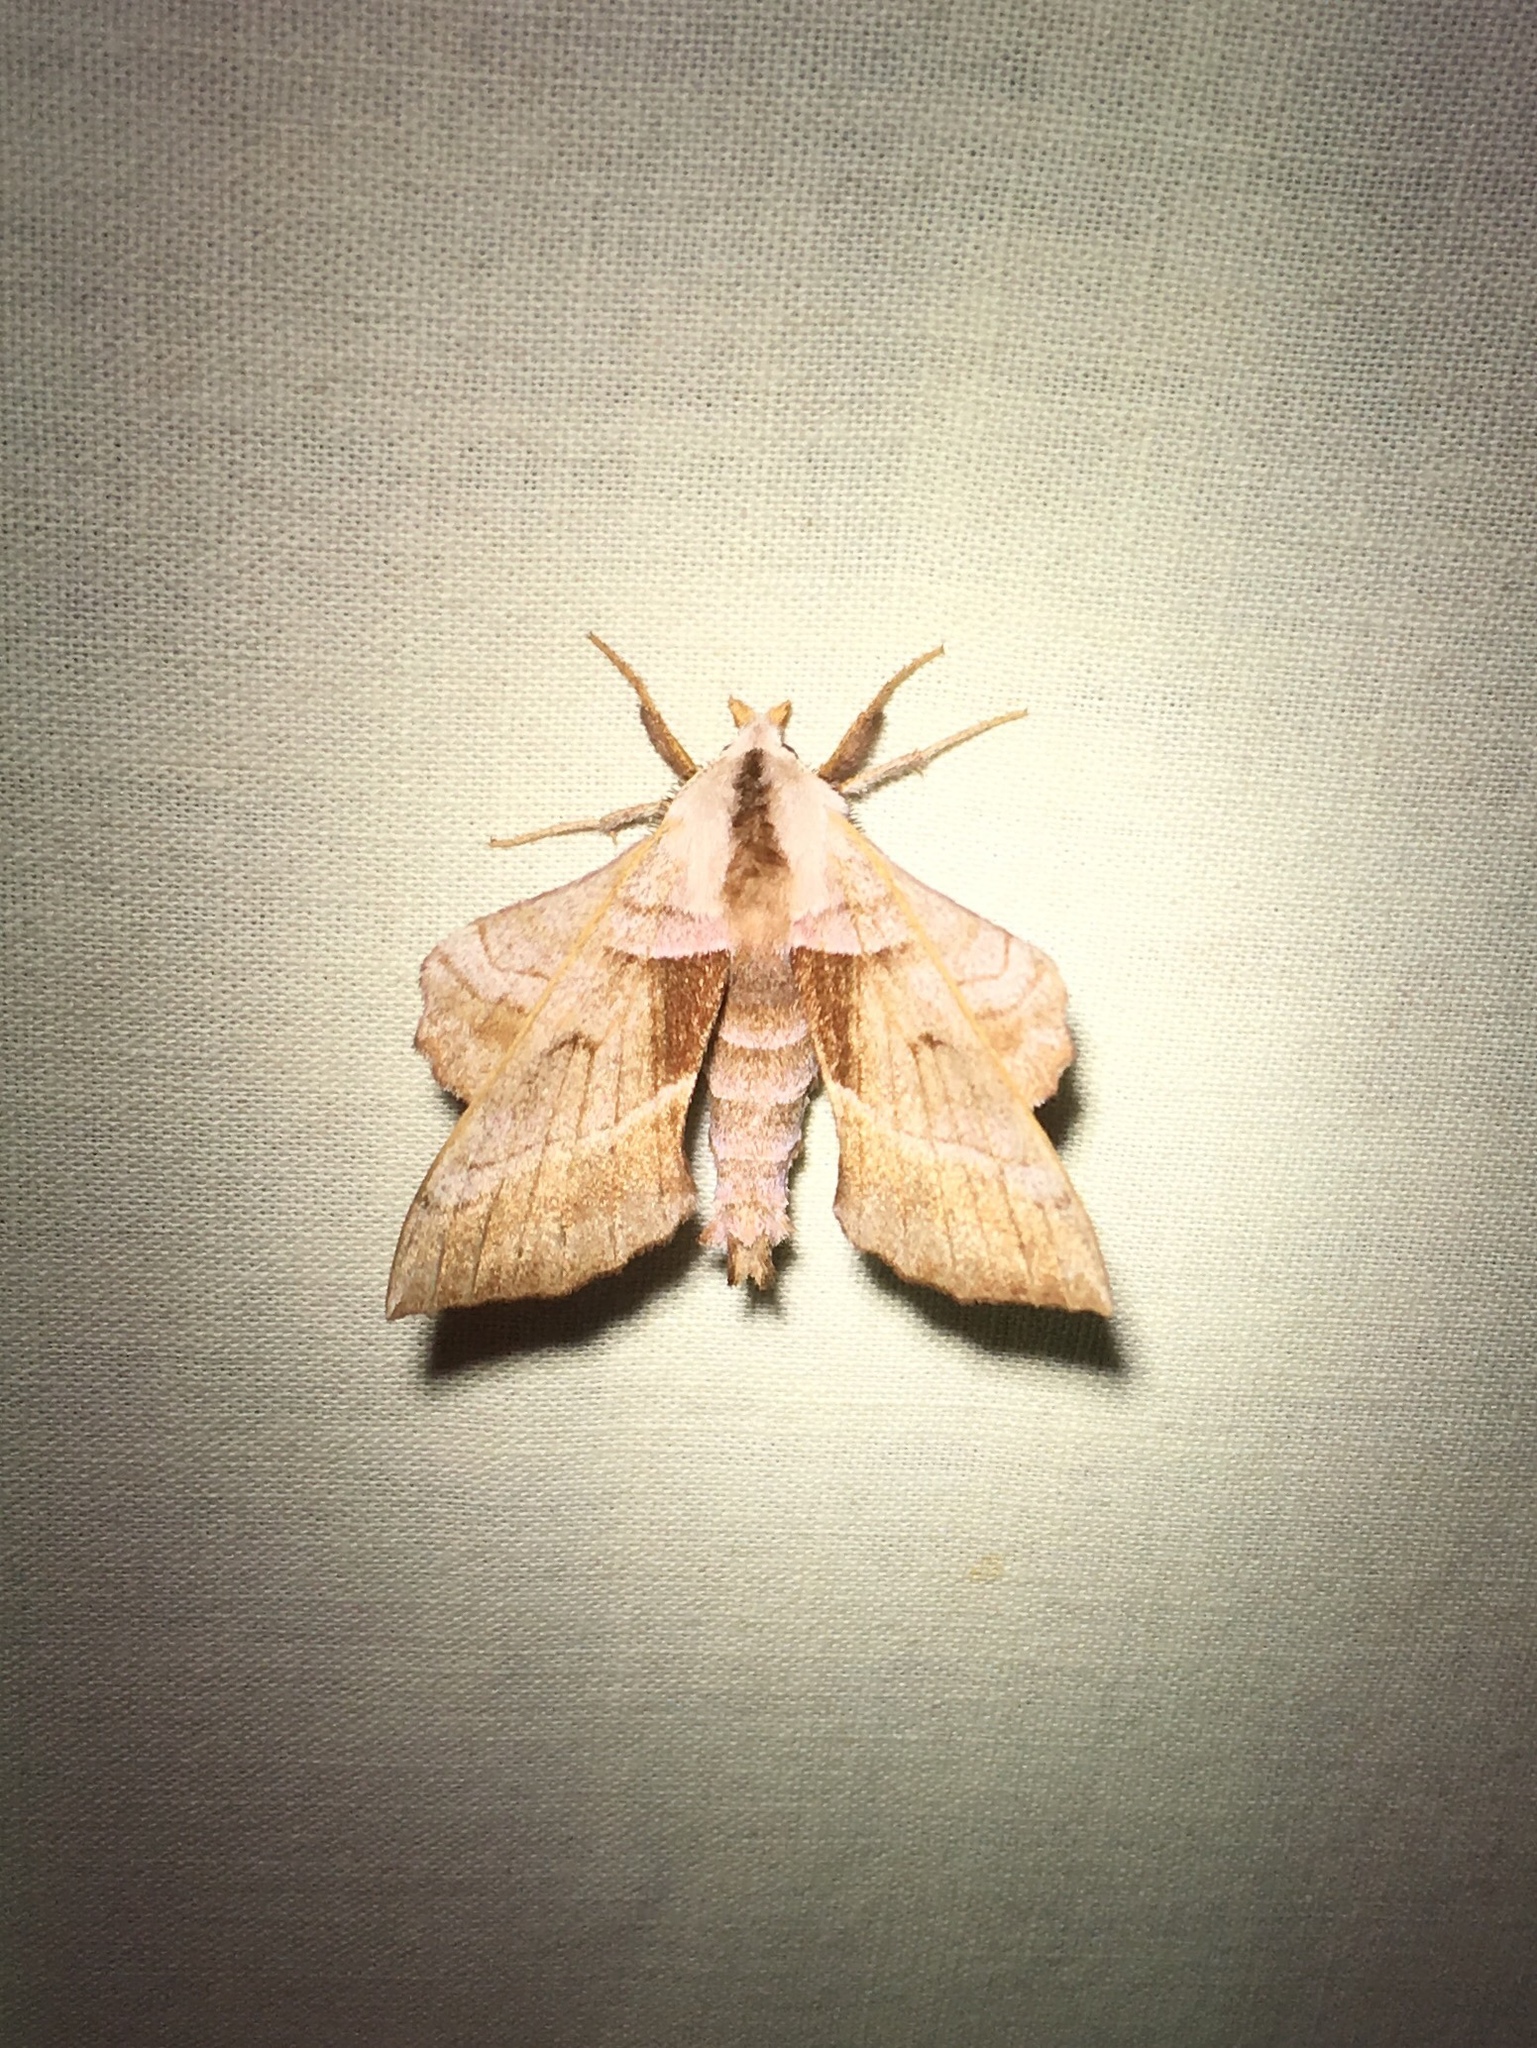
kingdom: Animalia
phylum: Arthropoda
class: Insecta
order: Lepidoptera
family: Sphingidae
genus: Amorpha
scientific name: Amorpha juglandis
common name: Walnut sphinx
